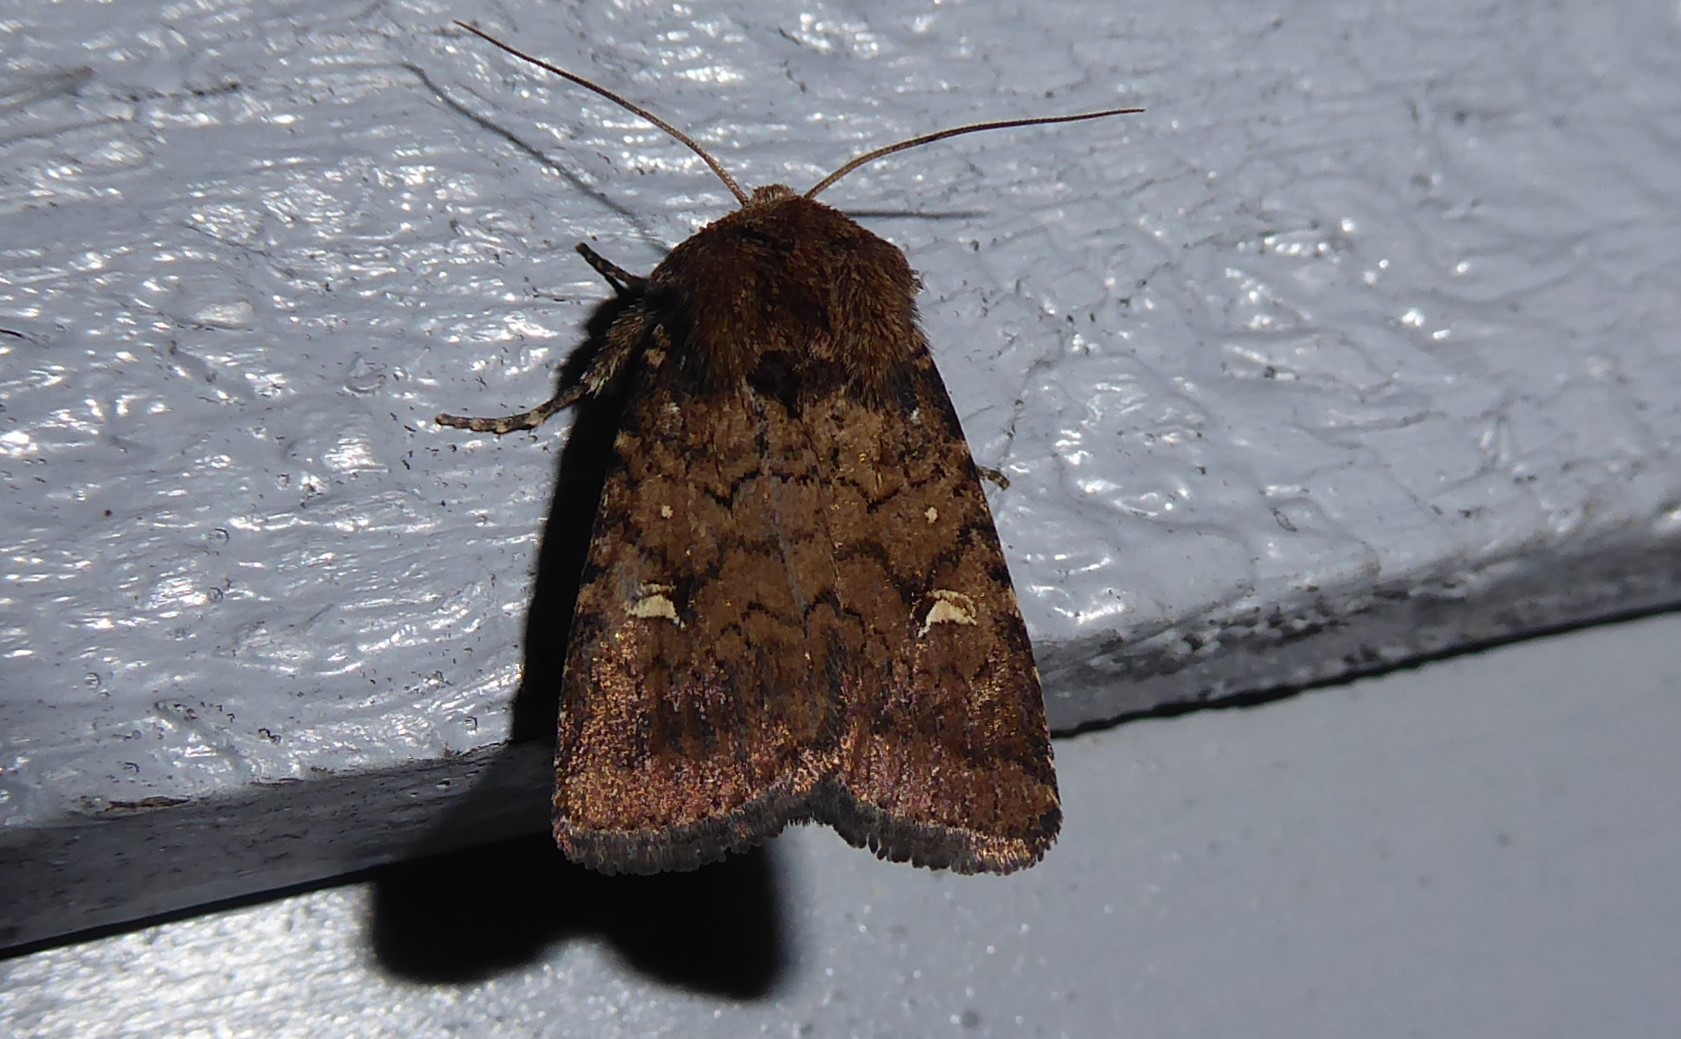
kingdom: Animalia
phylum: Arthropoda
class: Insecta
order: Lepidoptera
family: Noctuidae
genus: Proteuxoa
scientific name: Proteuxoa tetronycha
